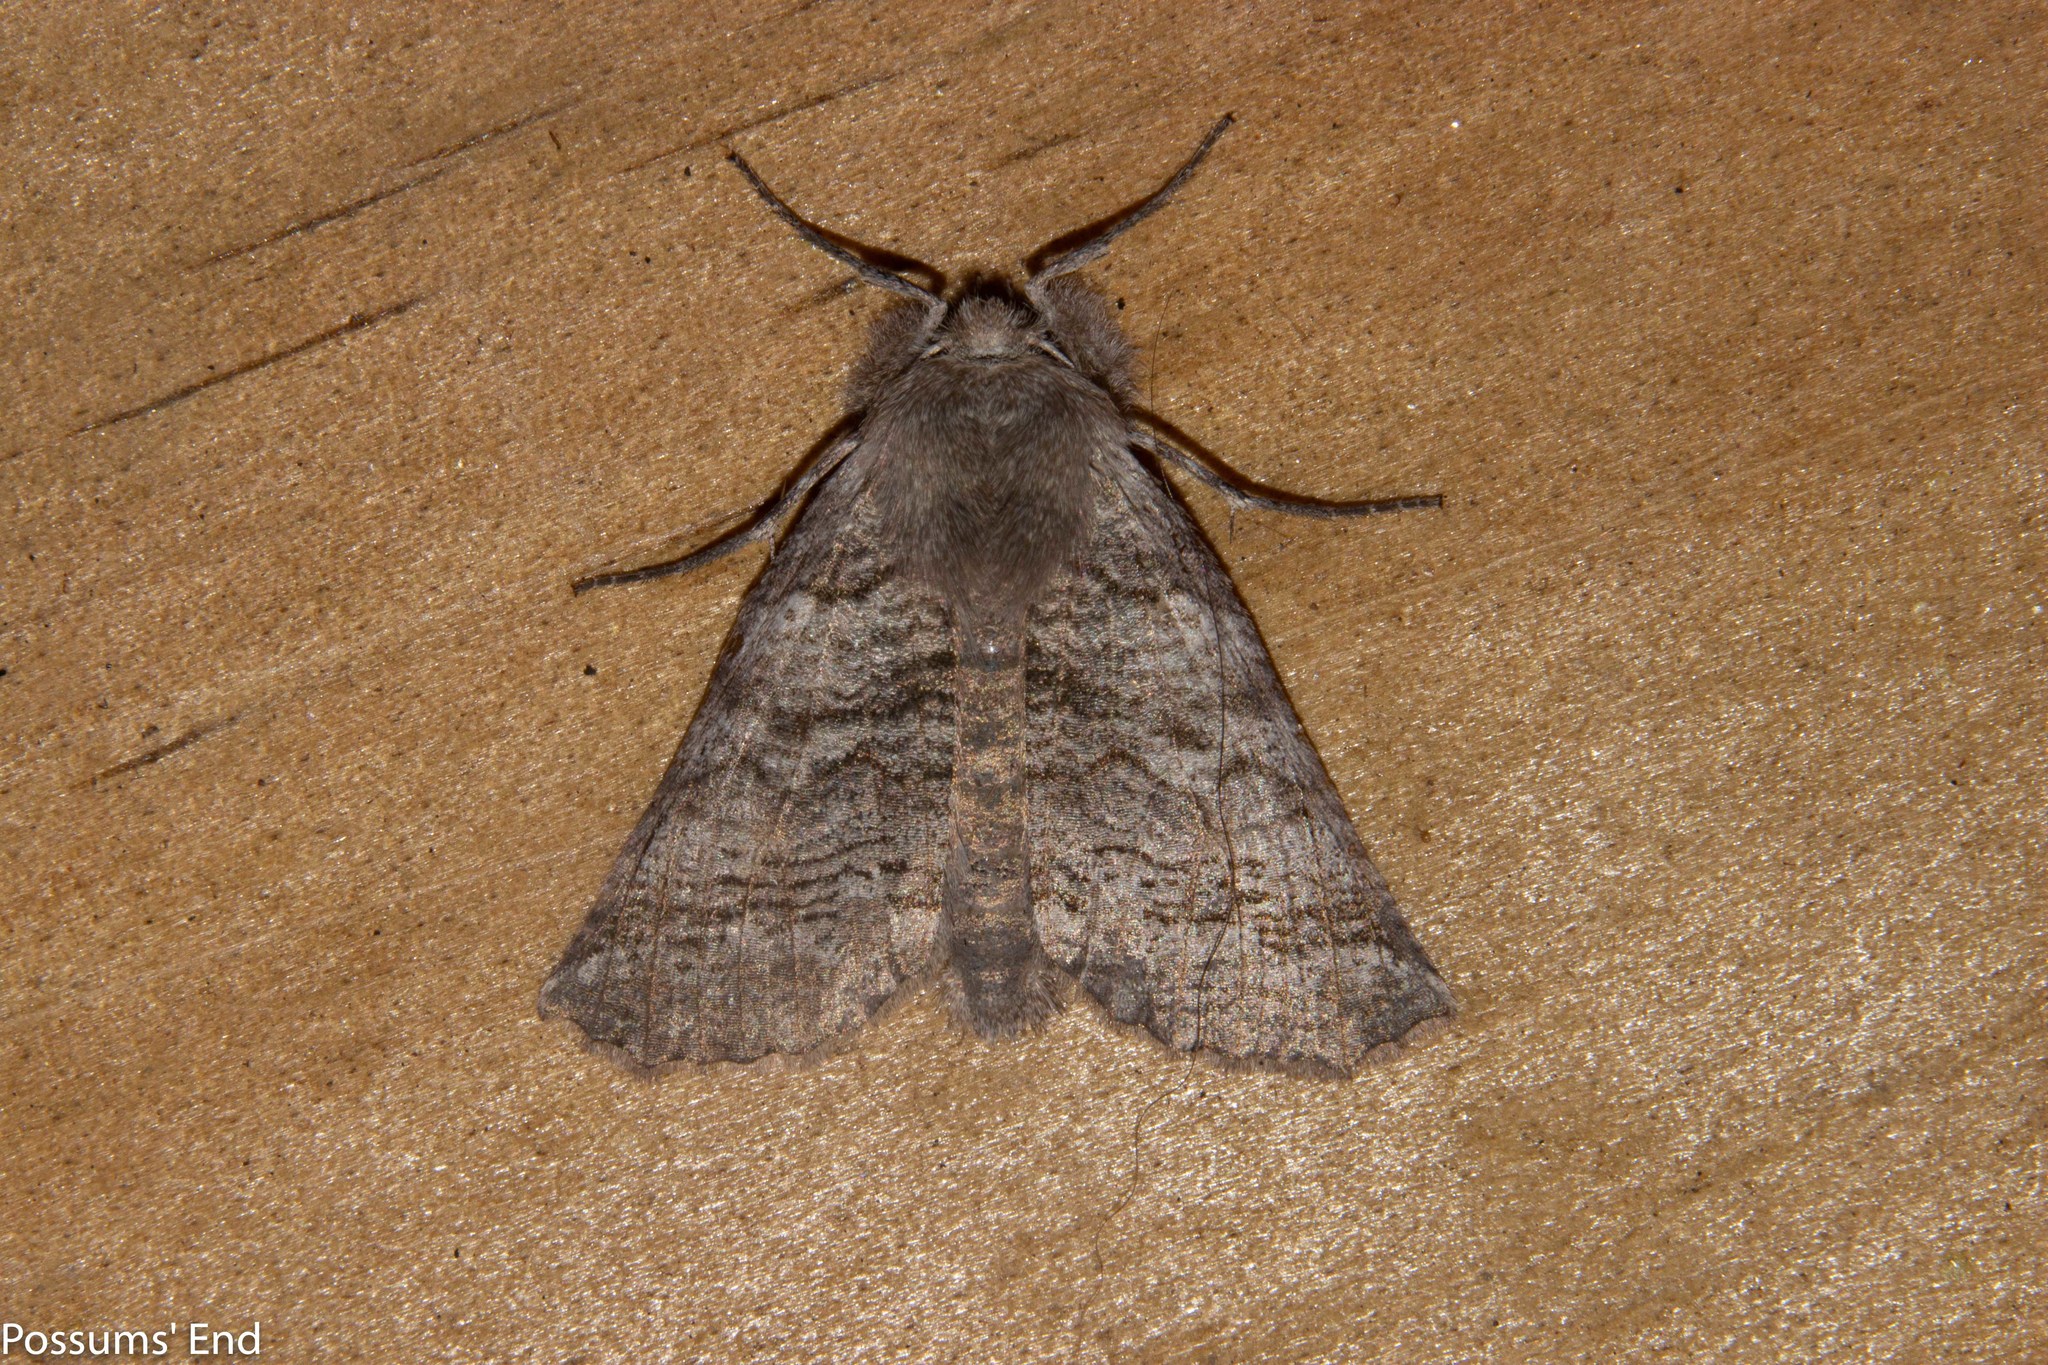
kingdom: Animalia
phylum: Arthropoda
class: Insecta
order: Lepidoptera
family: Geometridae
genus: Declana
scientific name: Declana
